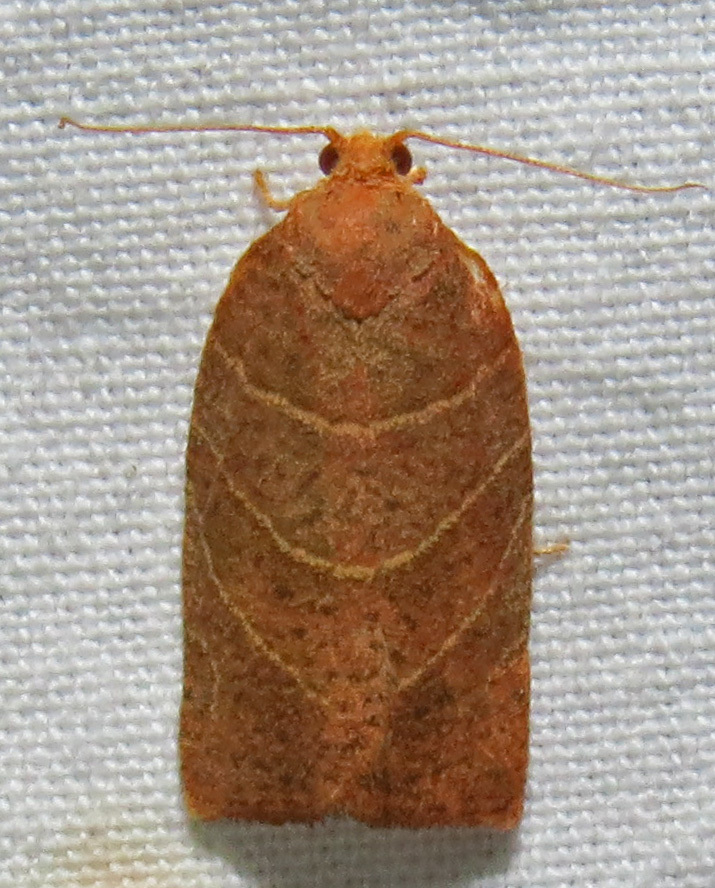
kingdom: Animalia
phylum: Arthropoda
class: Insecta
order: Lepidoptera
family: Tortricidae
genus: Pandemis
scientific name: Pandemis limitata
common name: Three-lined leafroller moth
